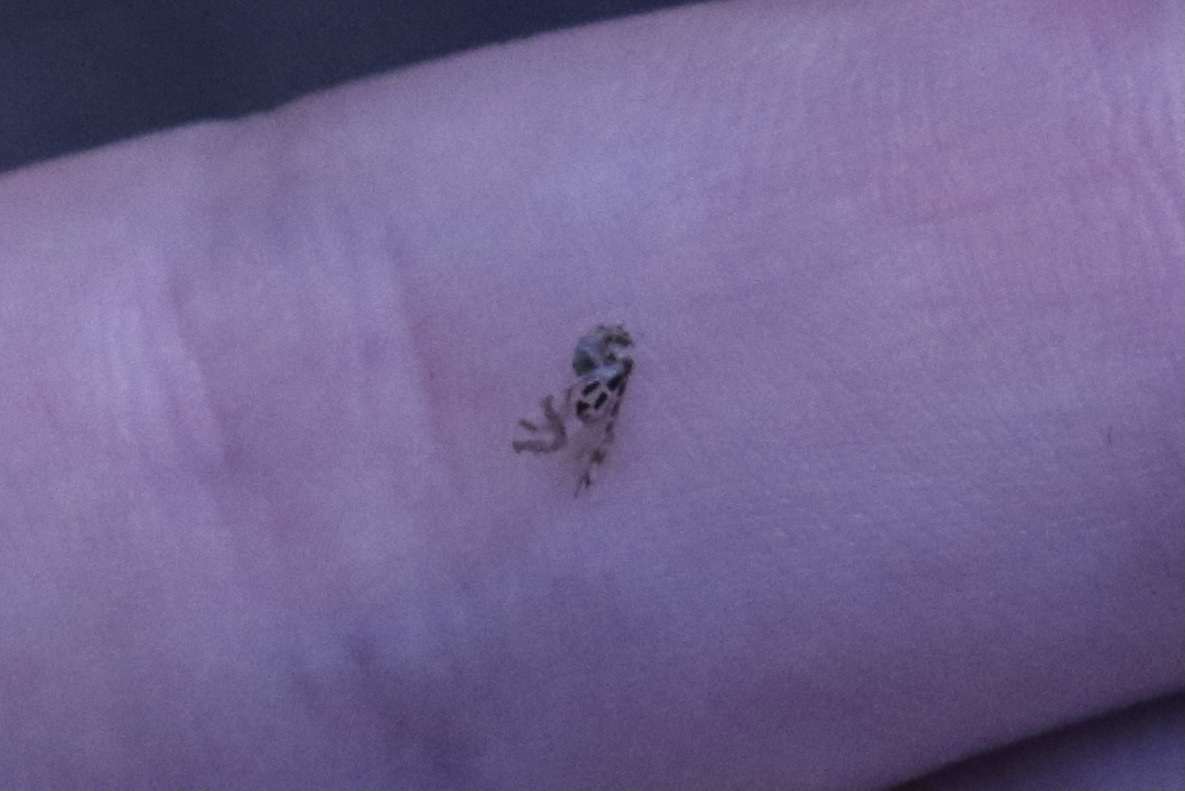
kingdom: Animalia
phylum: Arthropoda
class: Insecta
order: Psocodea
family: Stenopsocidae
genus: Graphopsocus
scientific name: Graphopsocus cruciatus
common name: Lizard bark louse
